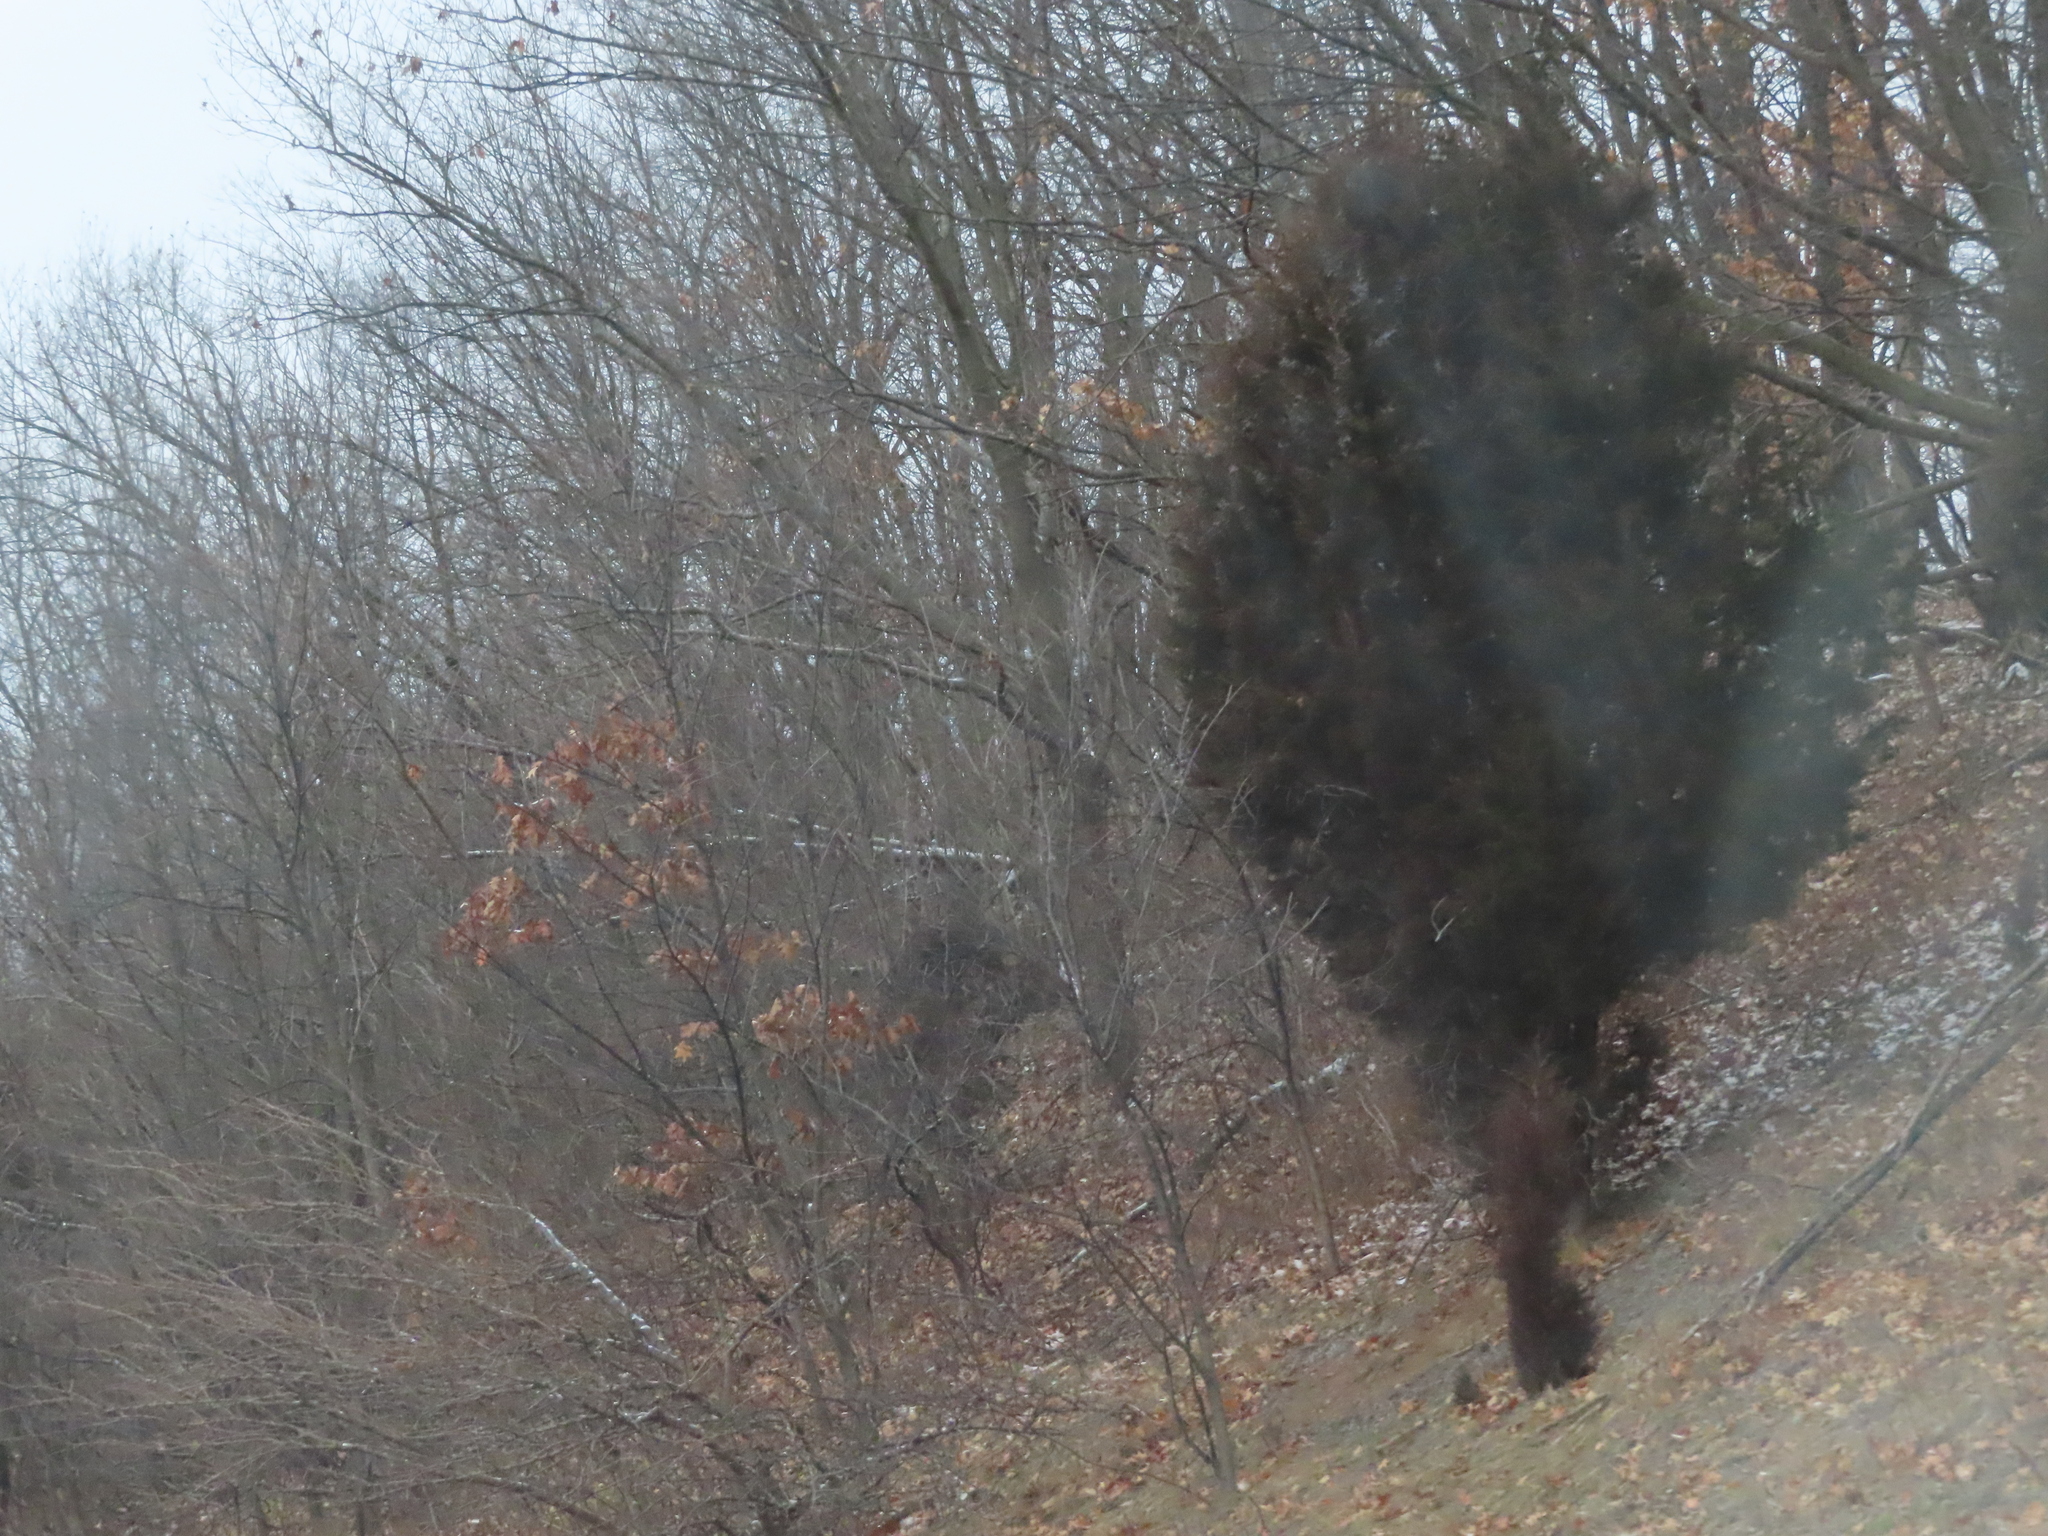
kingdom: Plantae
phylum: Tracheophyta
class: Pinopsida
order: Pinales
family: Cupressaceae
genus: Juniperus
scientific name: Juniperus virginiana
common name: Red juniper
